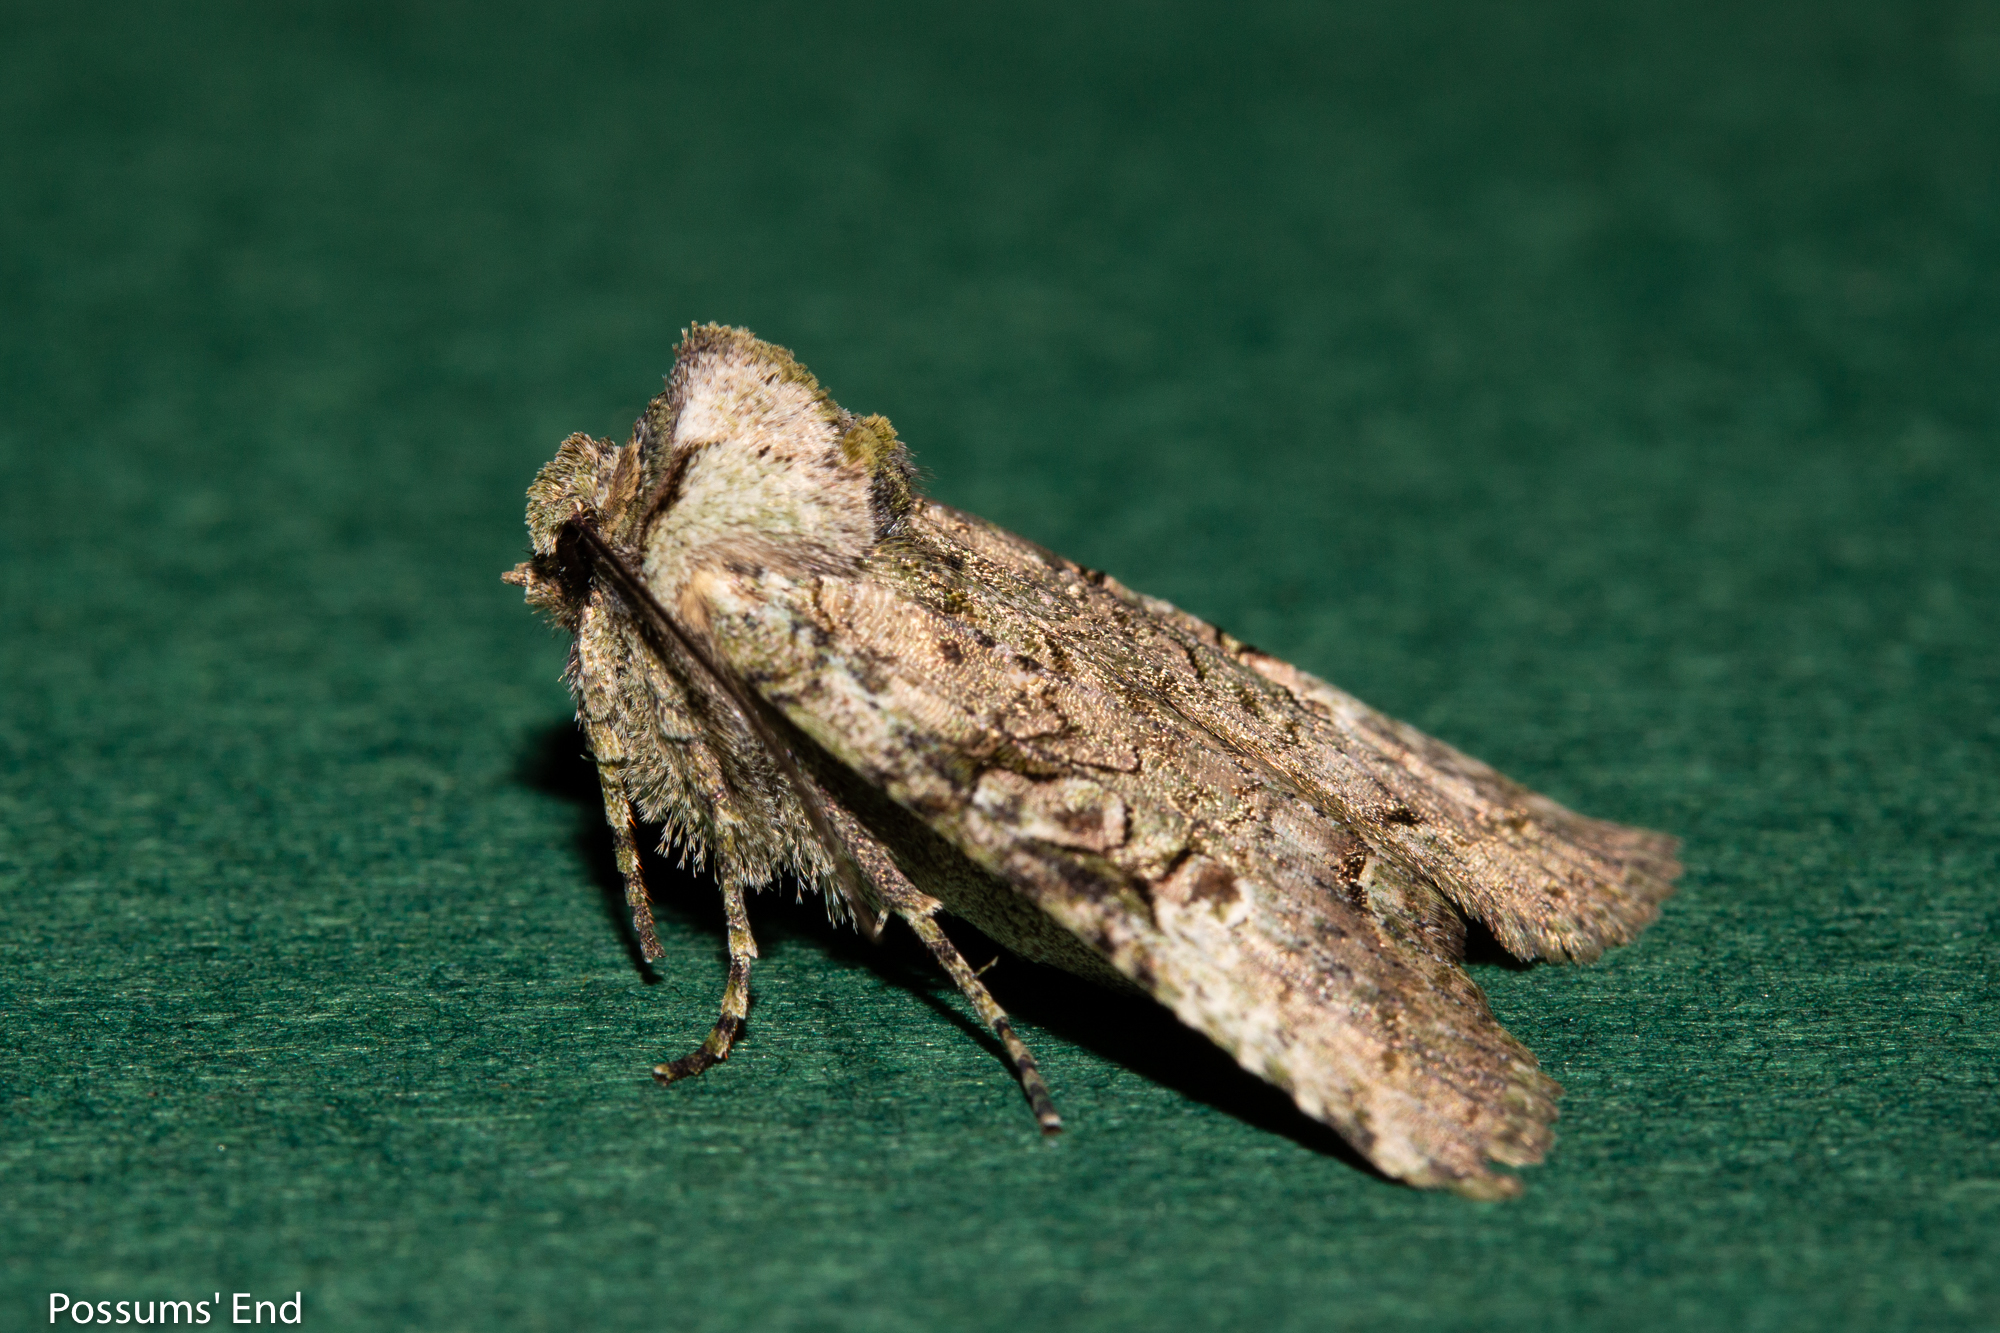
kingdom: Animalia
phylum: Arthropoda
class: Insecta
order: Lepidoptera
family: Noctuidae
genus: Meterana
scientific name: Meterana levis
